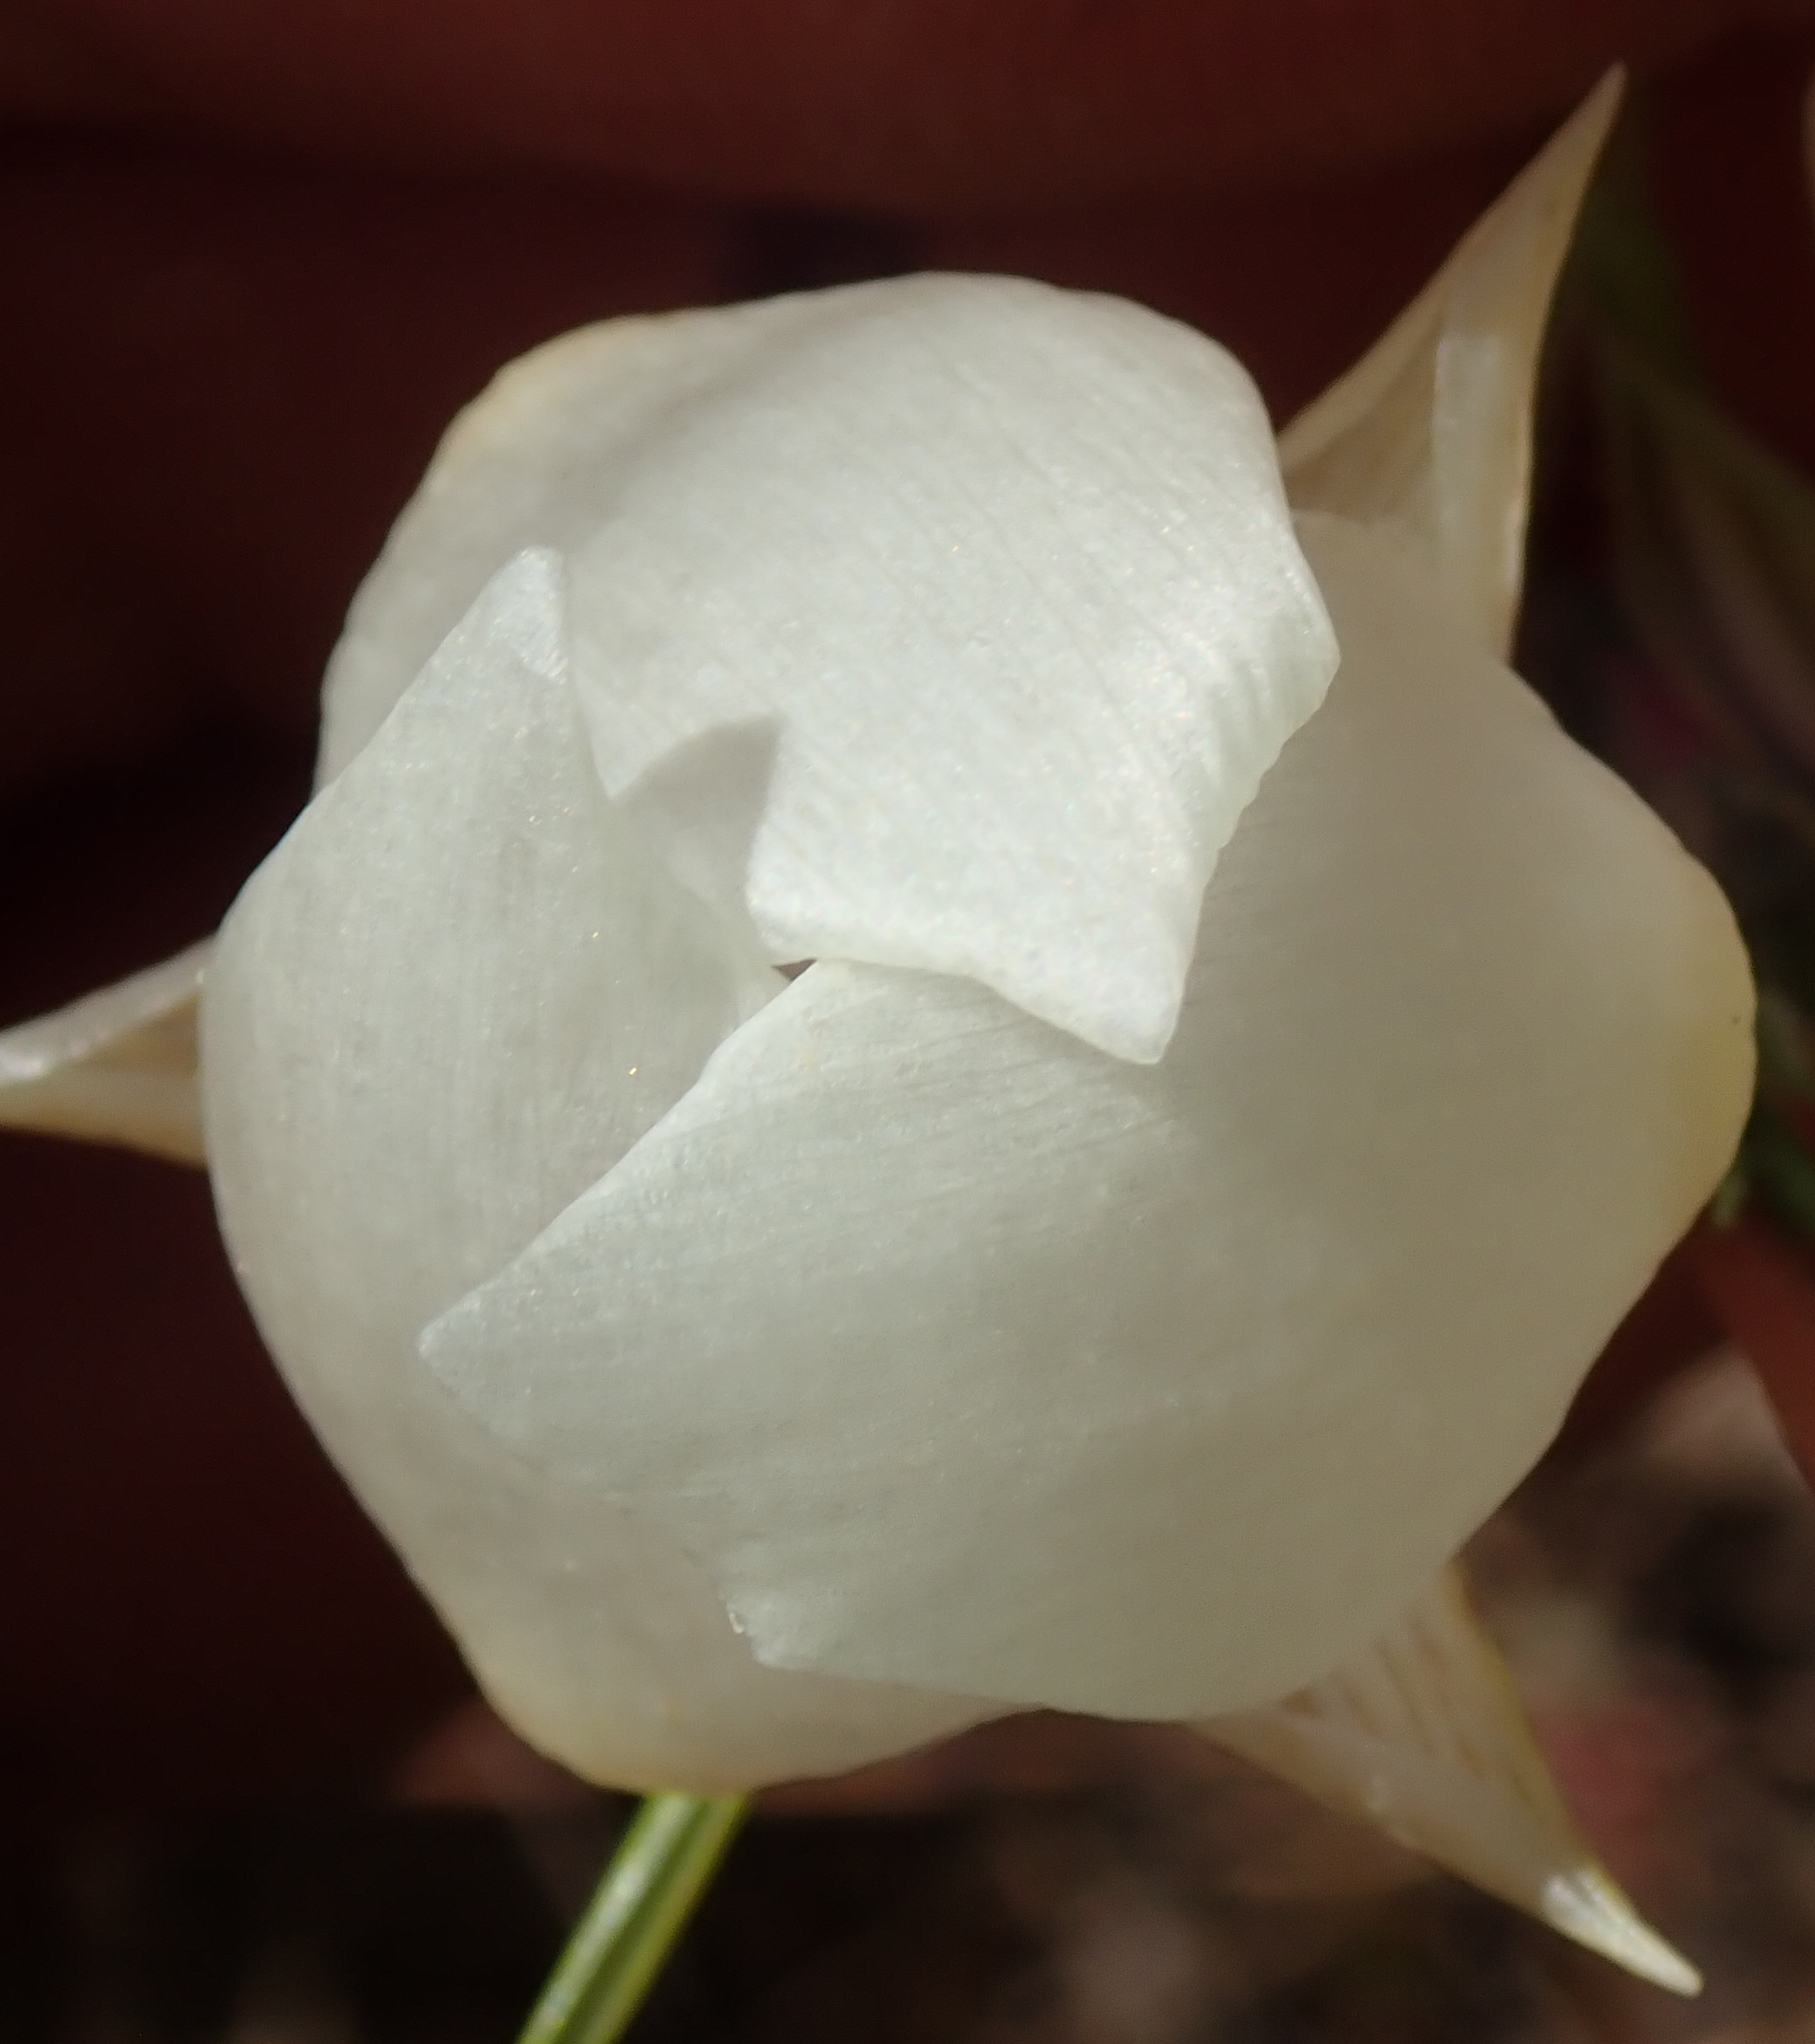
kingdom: Plantae
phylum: Tracheophyta
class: Liliopsida
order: Liliales
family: Liliaceae
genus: Calochortus
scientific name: Calochortus albus
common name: Fairy-lantern
